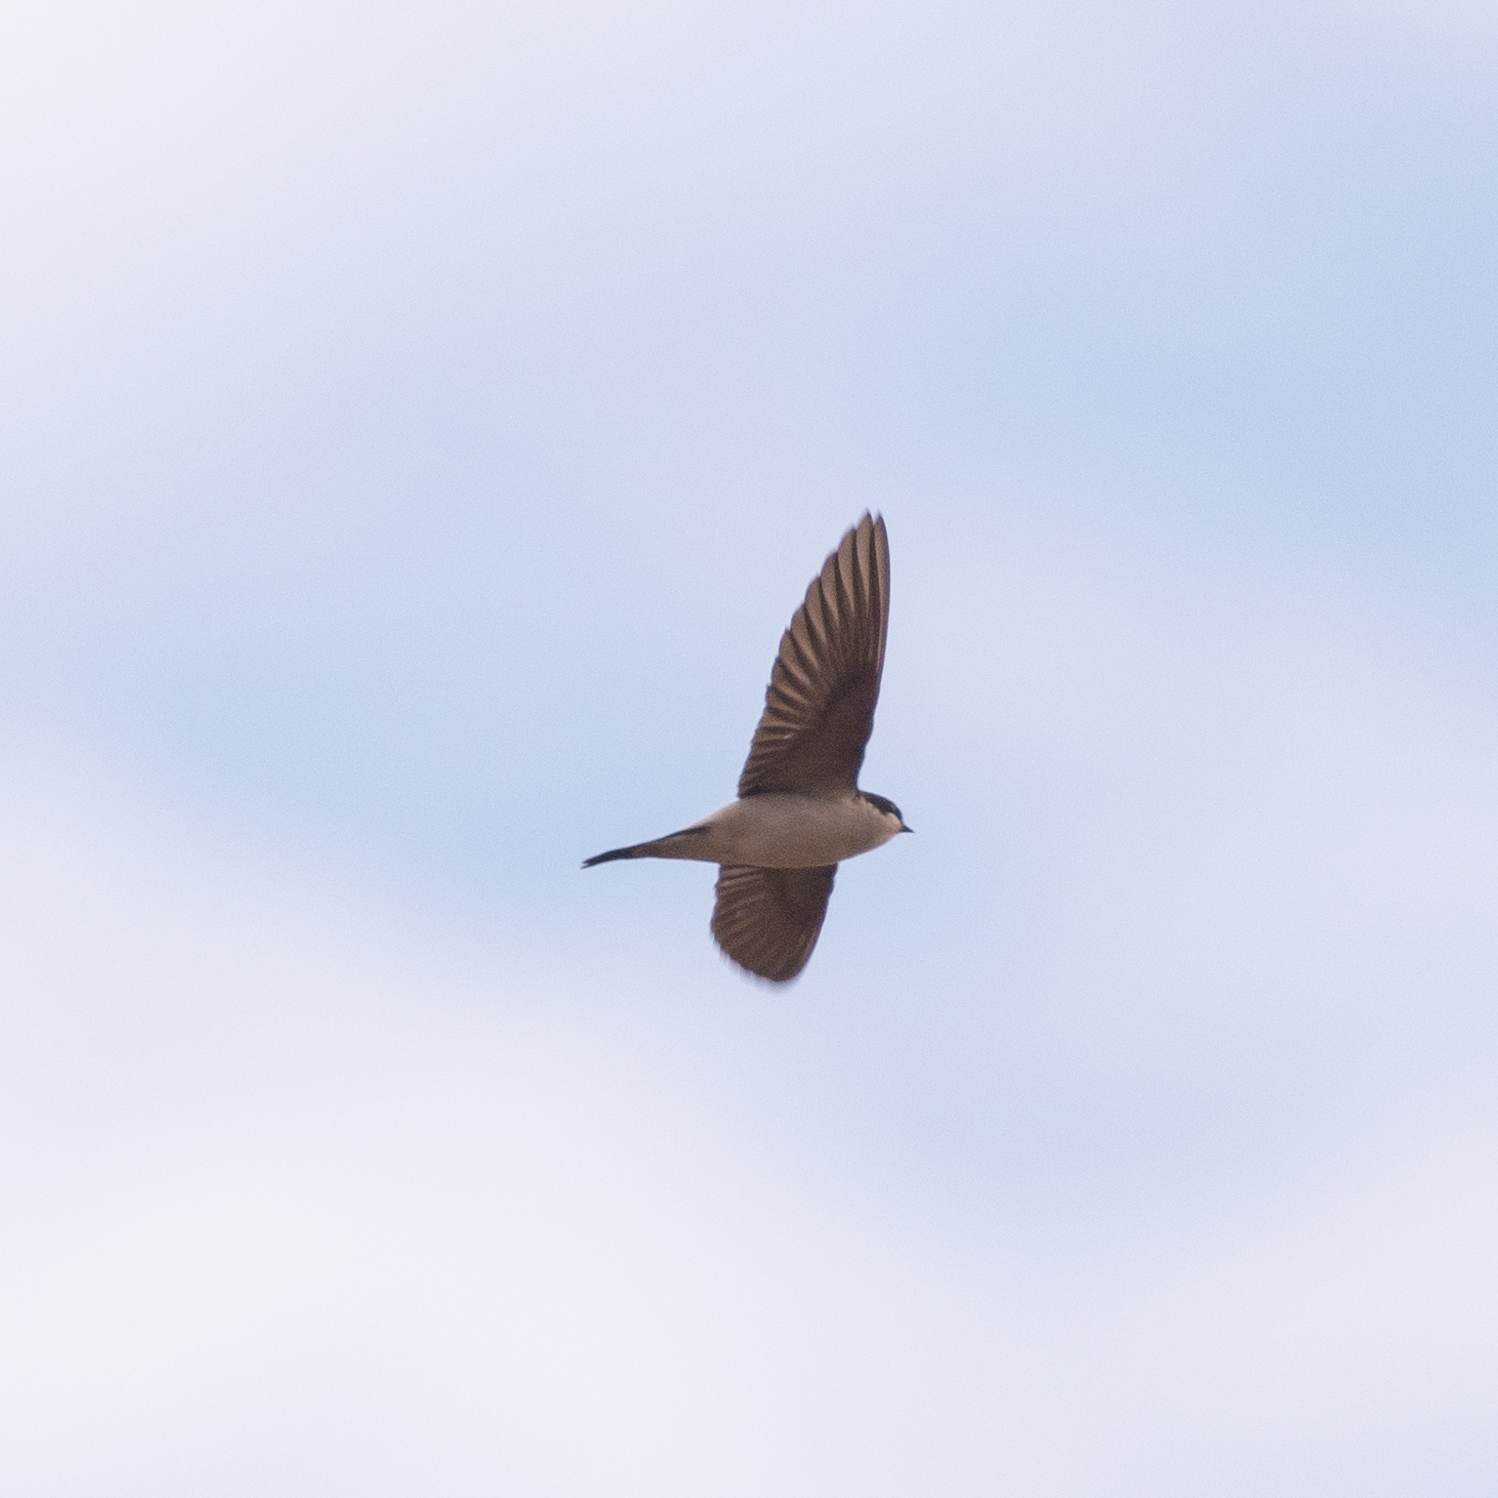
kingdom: Animalia
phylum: Chordata
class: Aves
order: Passeriformes
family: Hirundinidae
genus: Delichon
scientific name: Delichon urbicum
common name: Common house martin
